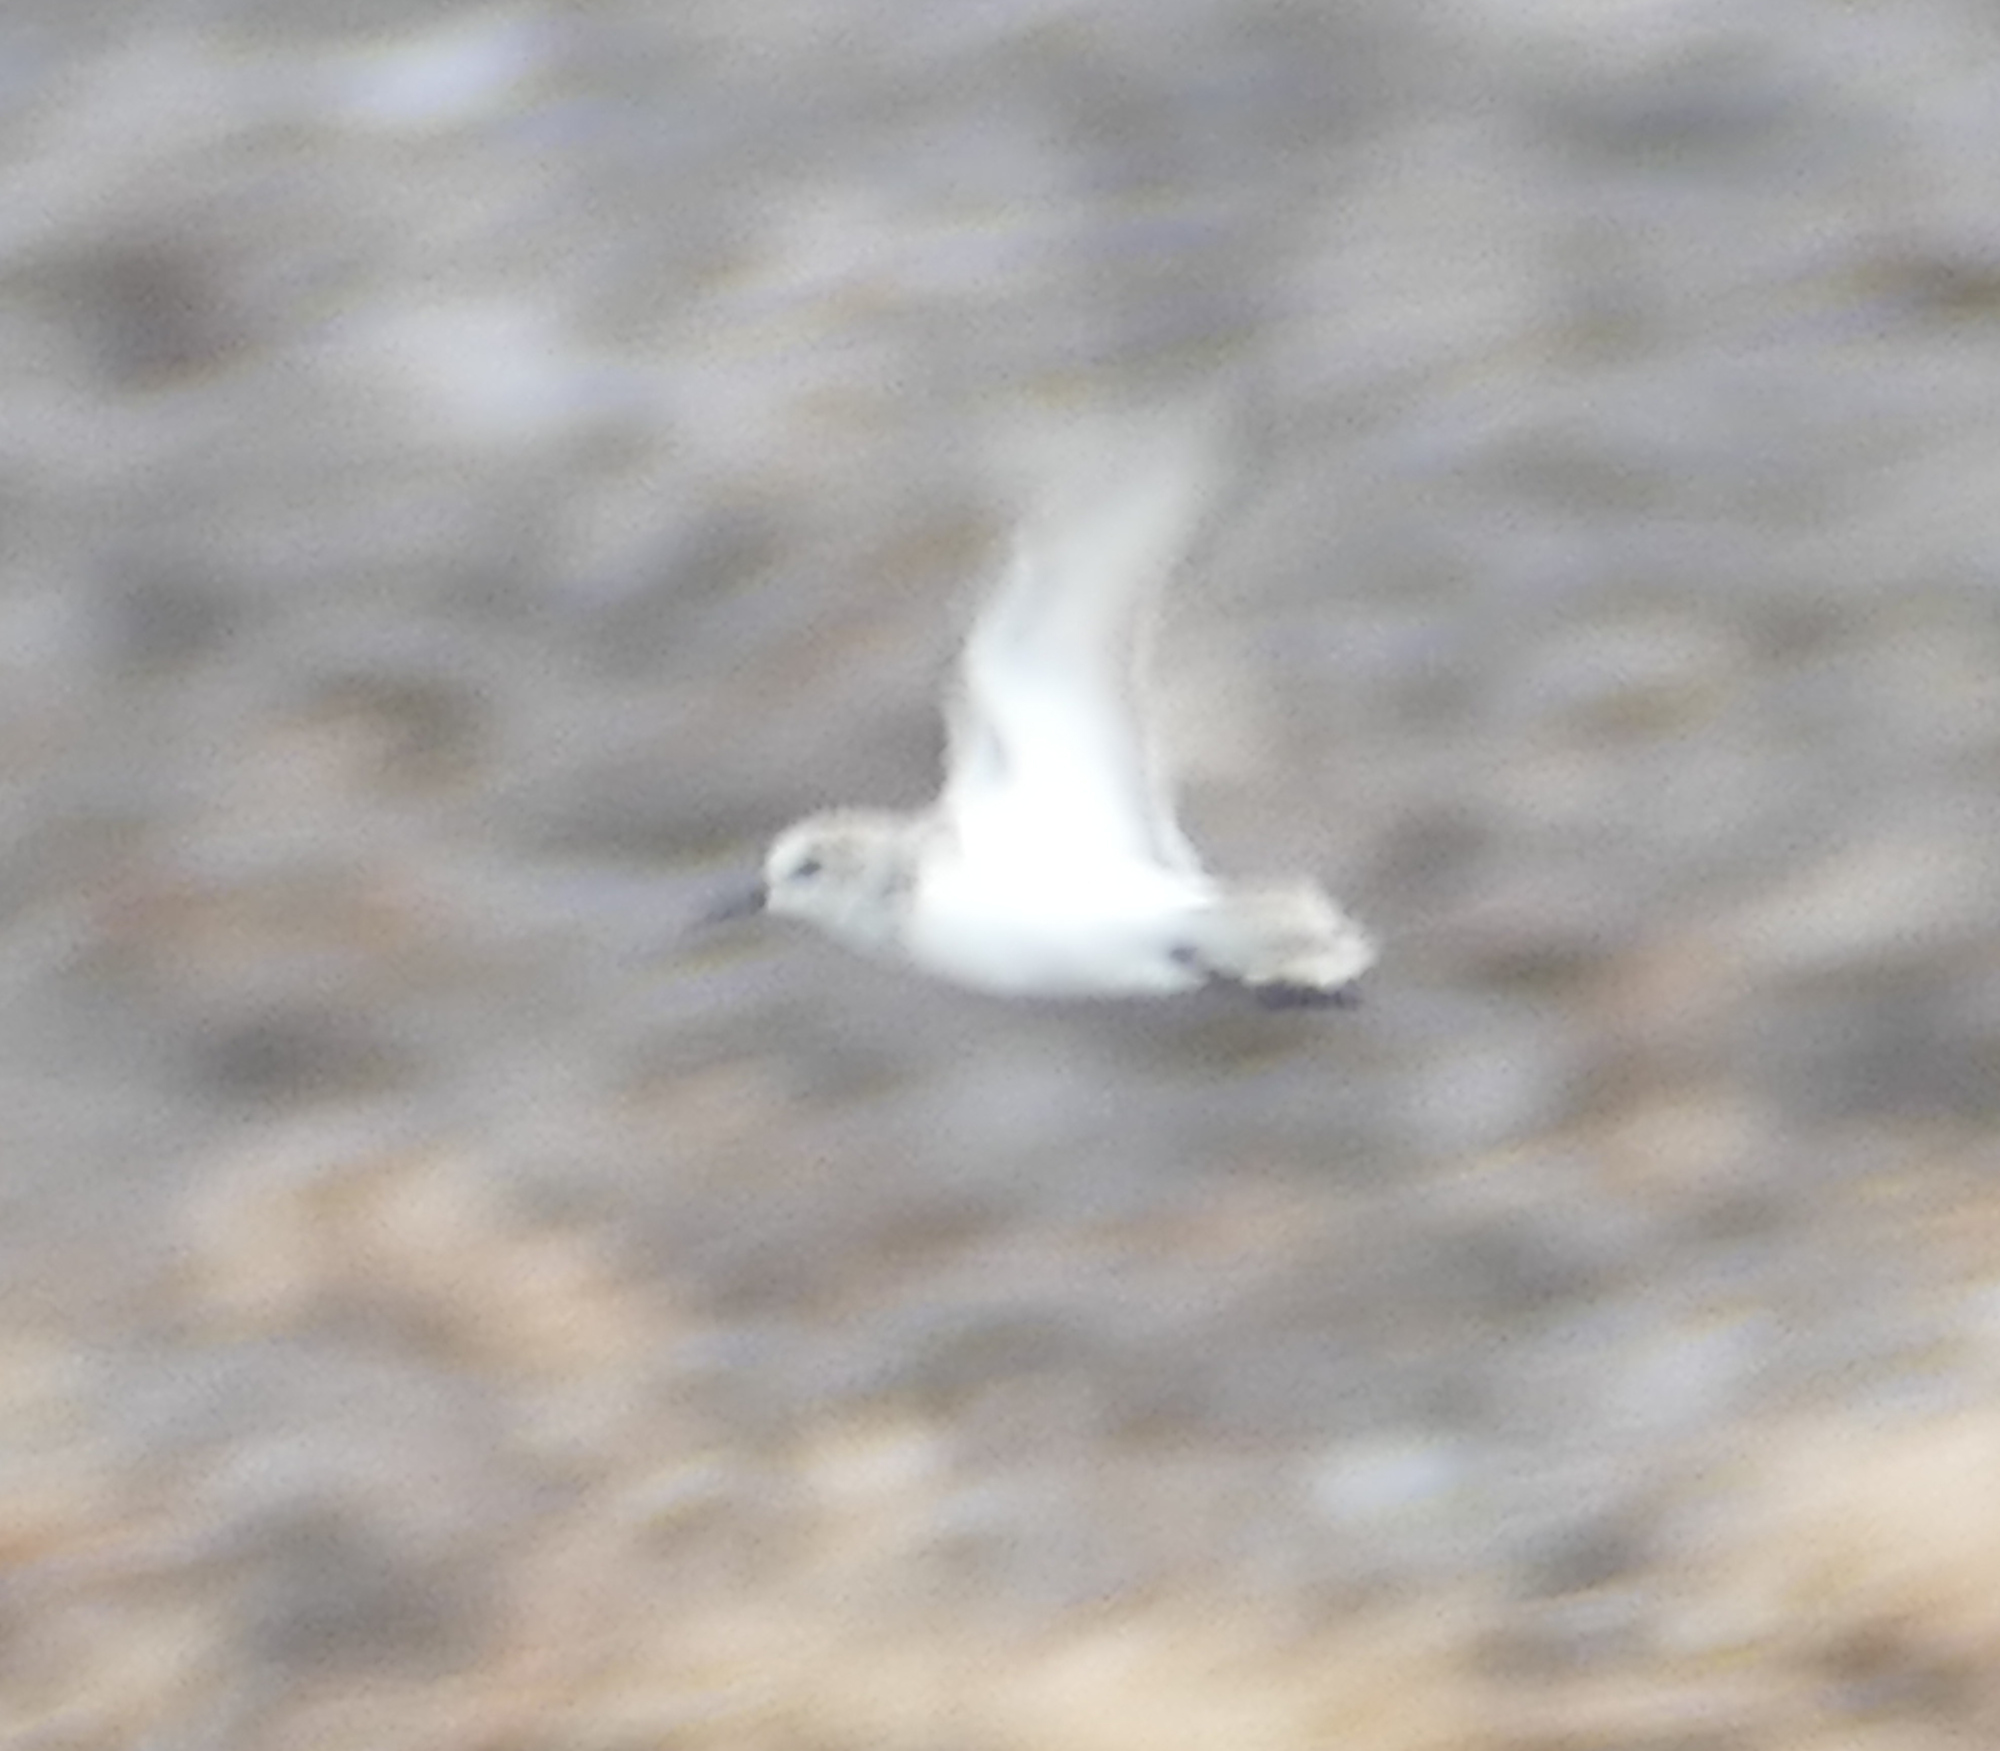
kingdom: Animalia
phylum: Chordata
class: Aves
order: Charadriiformes
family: Scolopacidae
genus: Calidris
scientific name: Calidris alba
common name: Sanderling
